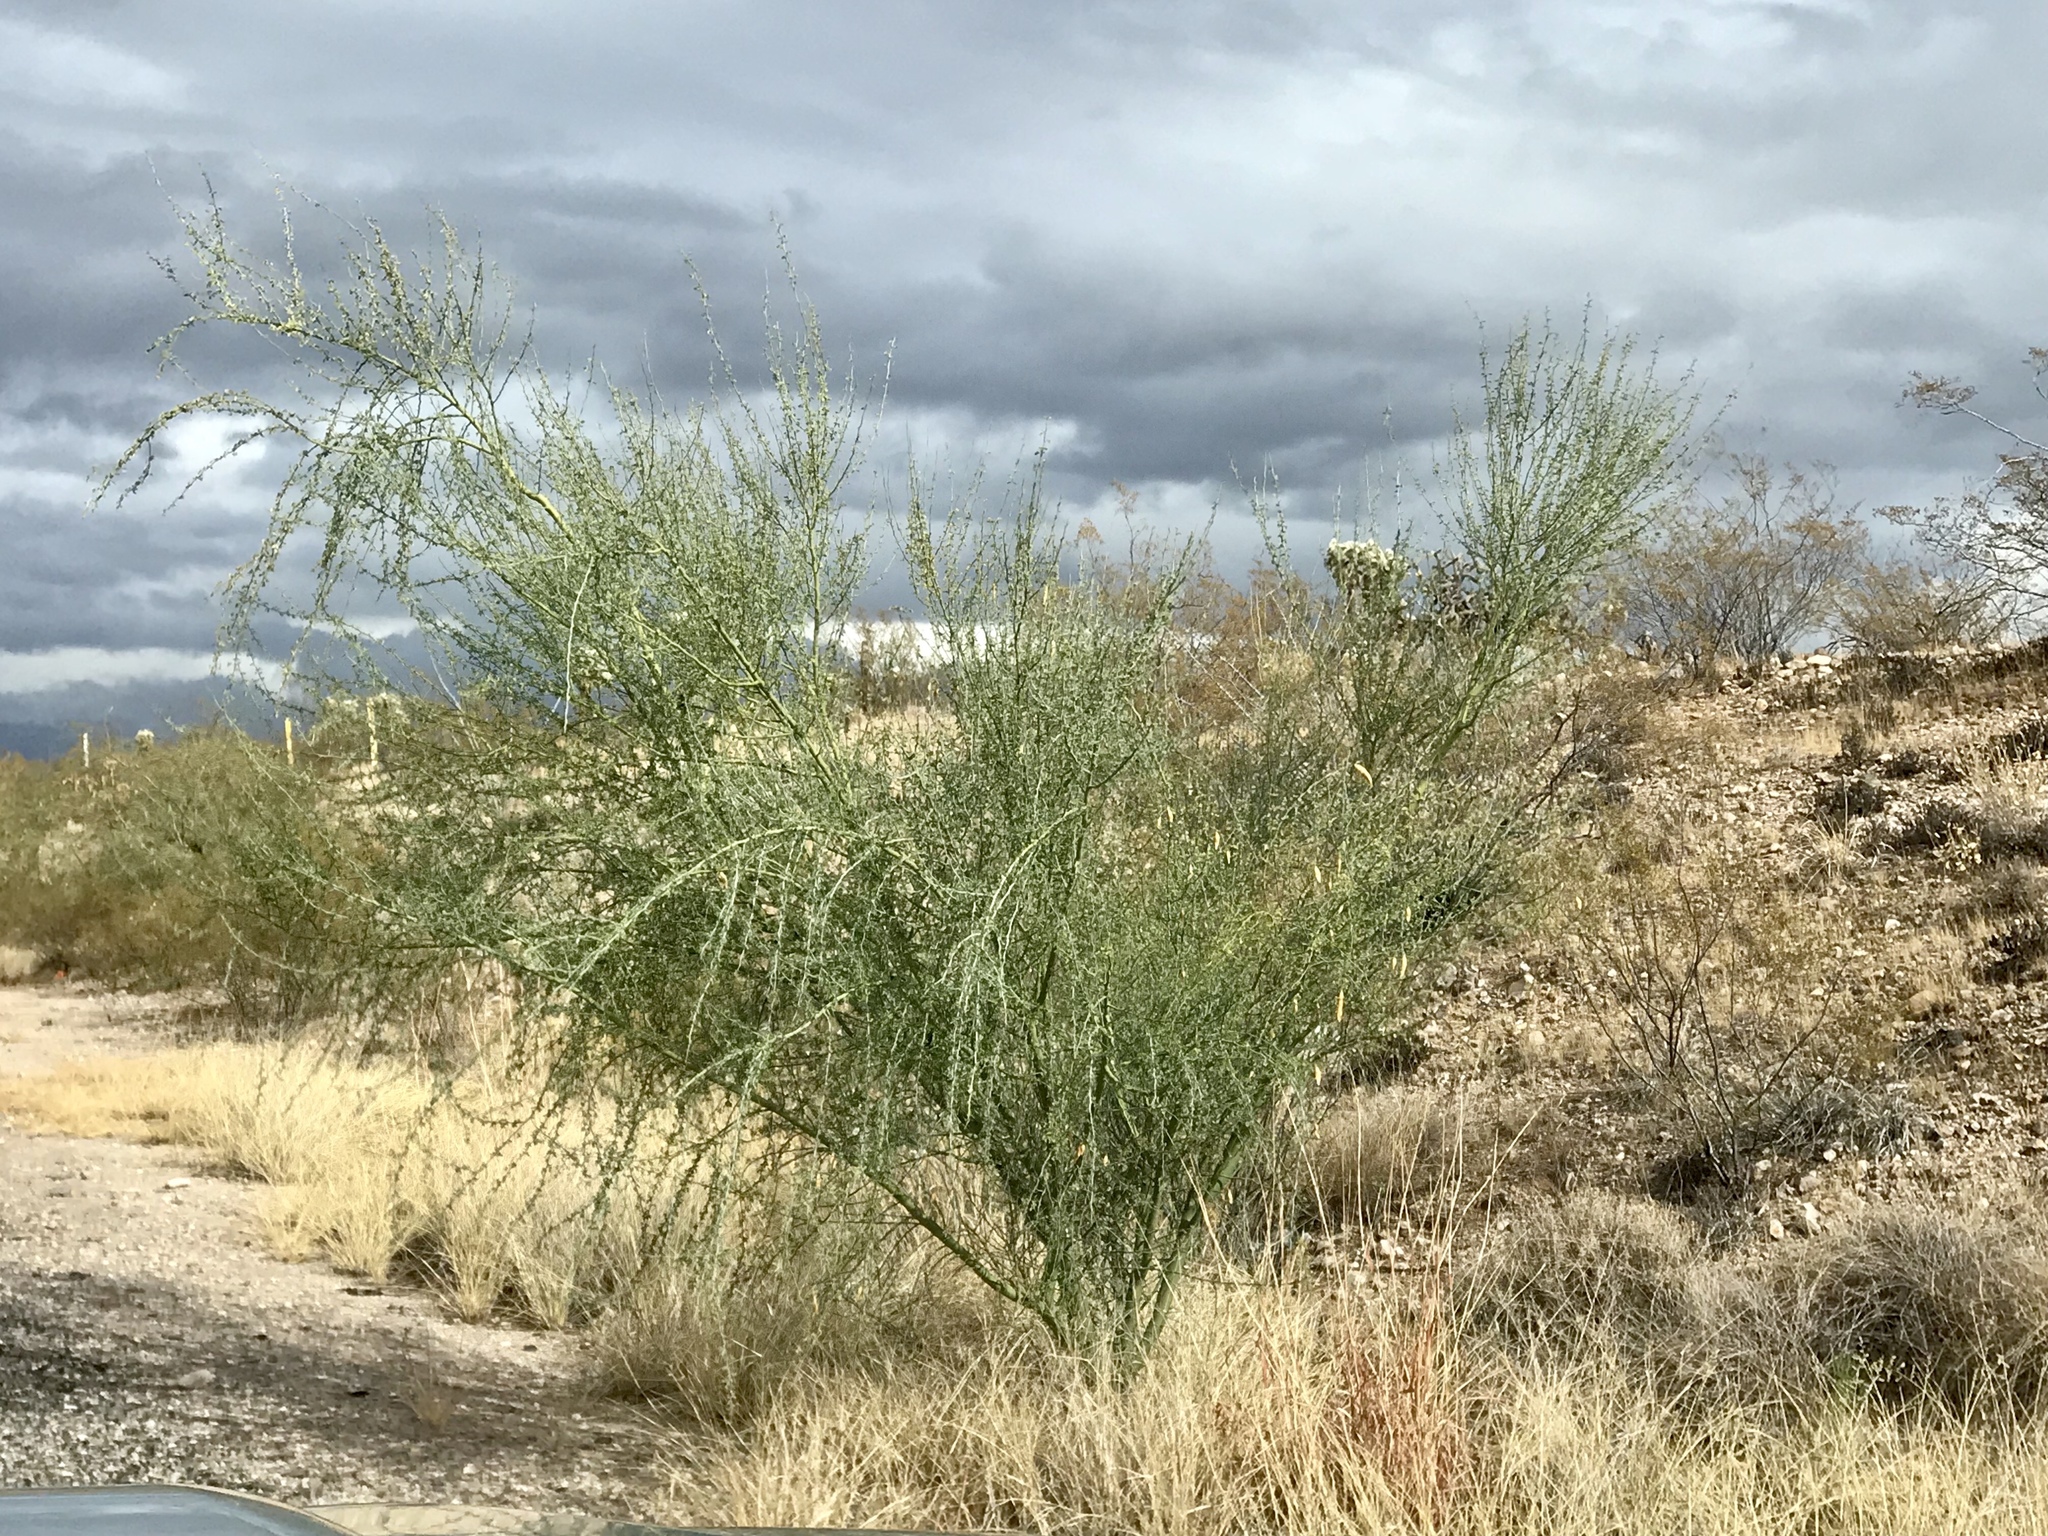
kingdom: Plantae
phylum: Tracheophyta
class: Magnoliopsida
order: Fabales
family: Fabaceae
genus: Parkinsonia
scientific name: Parkinsonia florida
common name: Blue paloverde
